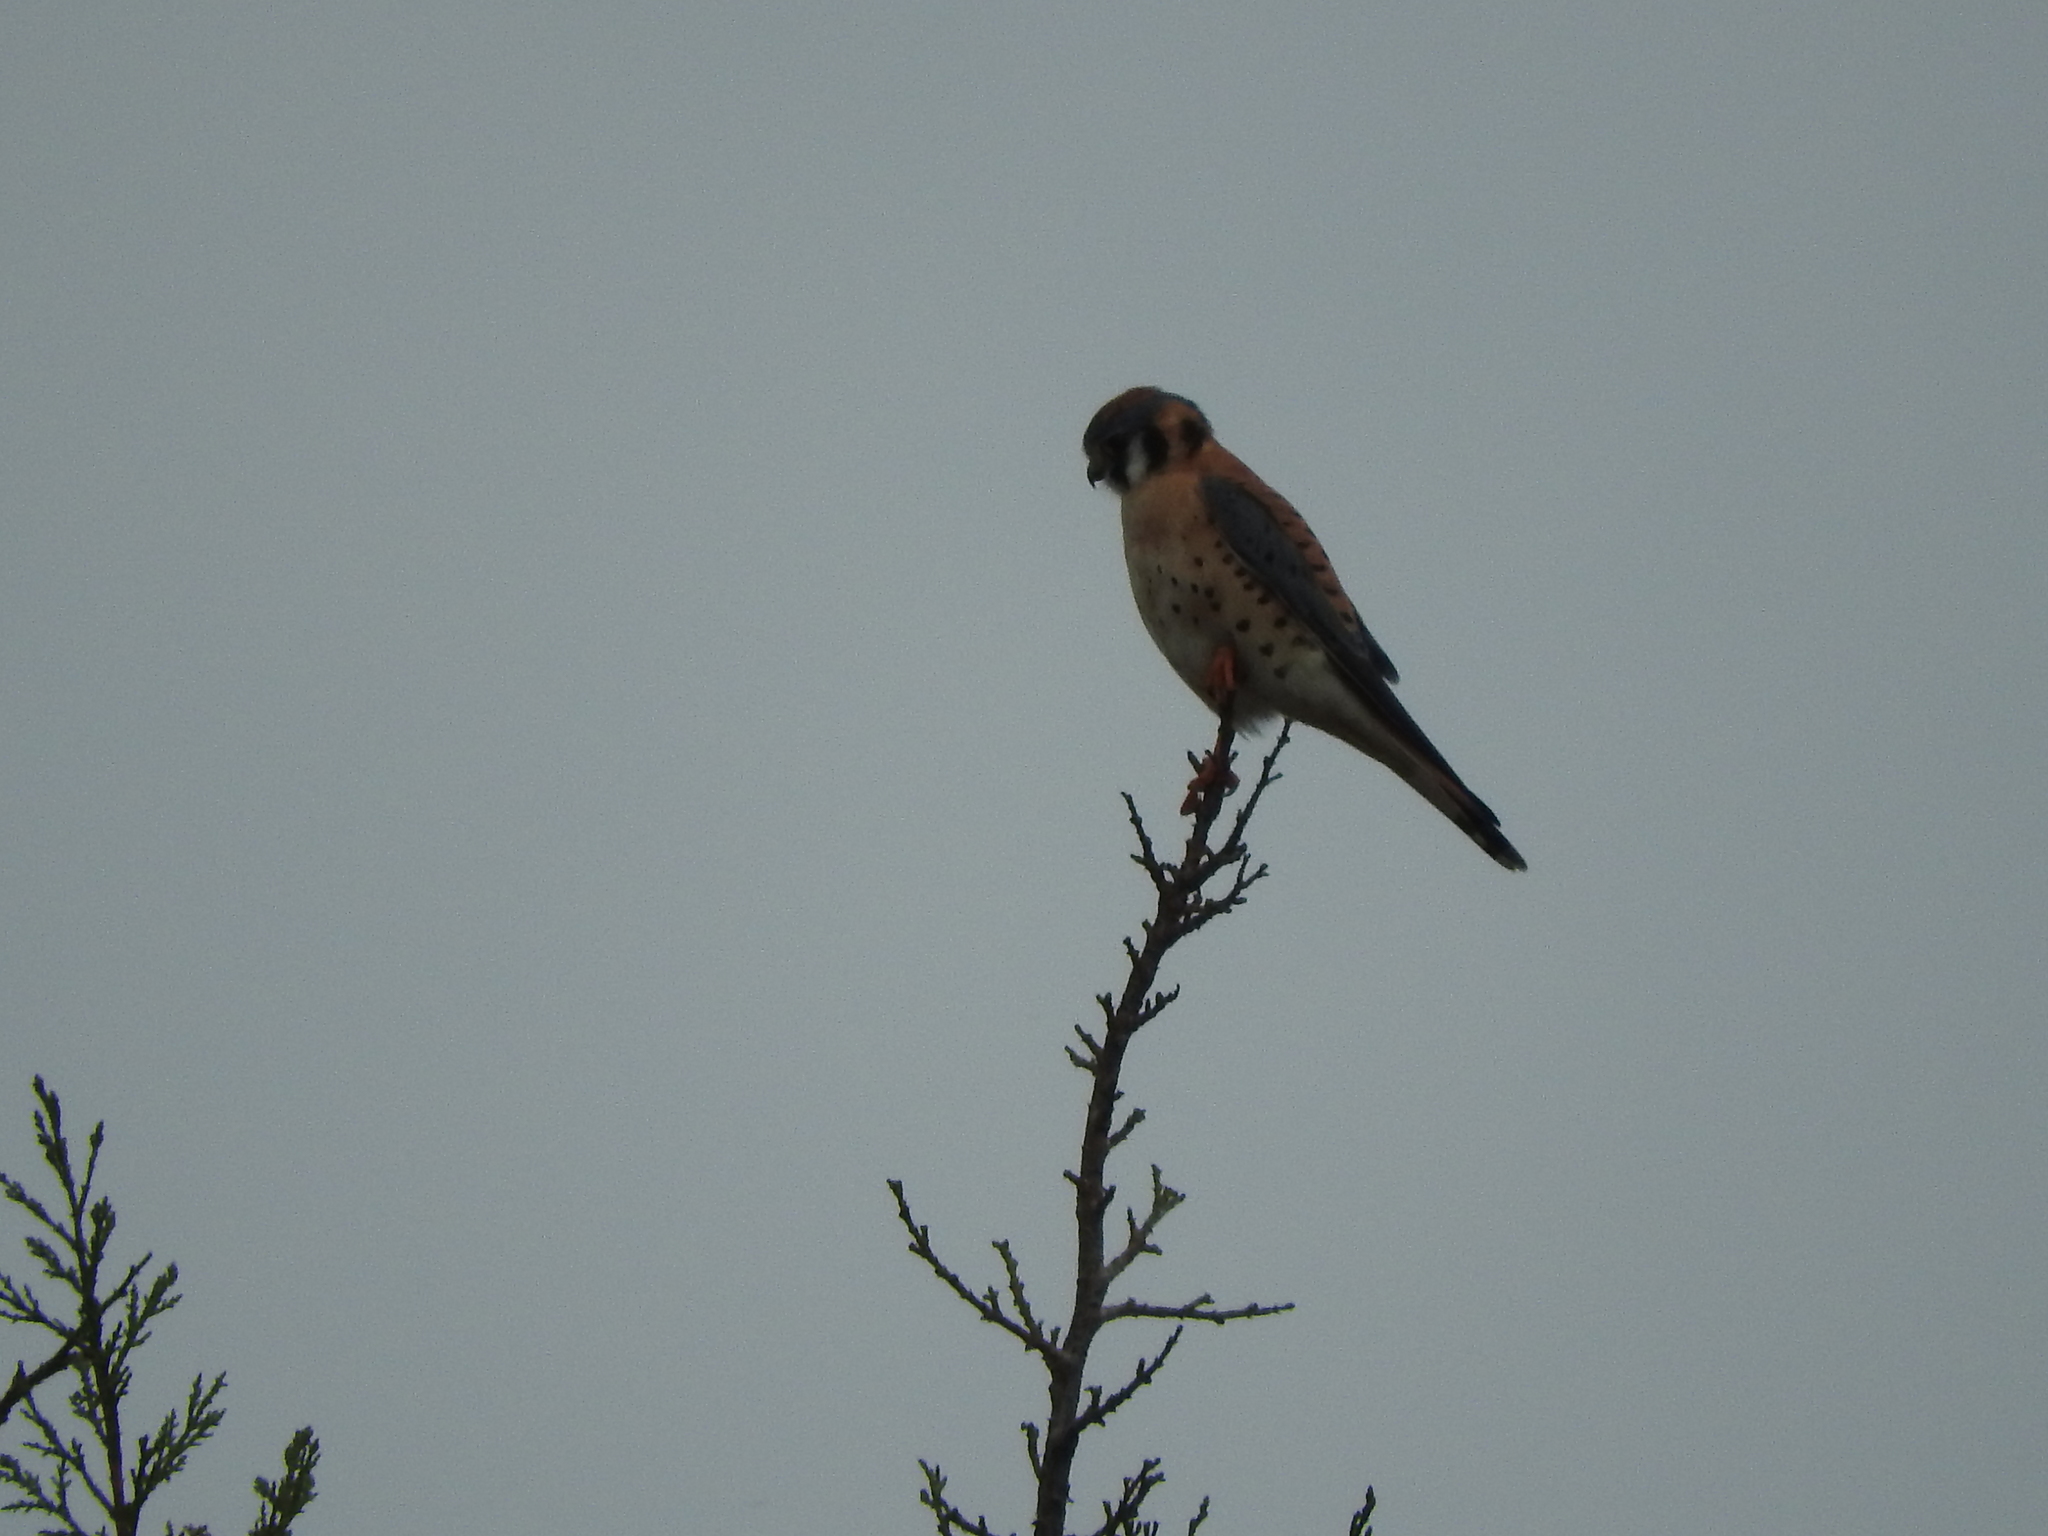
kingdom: Animalia
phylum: Chordata
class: Aves
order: Falconiformes
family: Falconidae
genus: Falco
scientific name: Falco sparverius
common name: American kestrel
